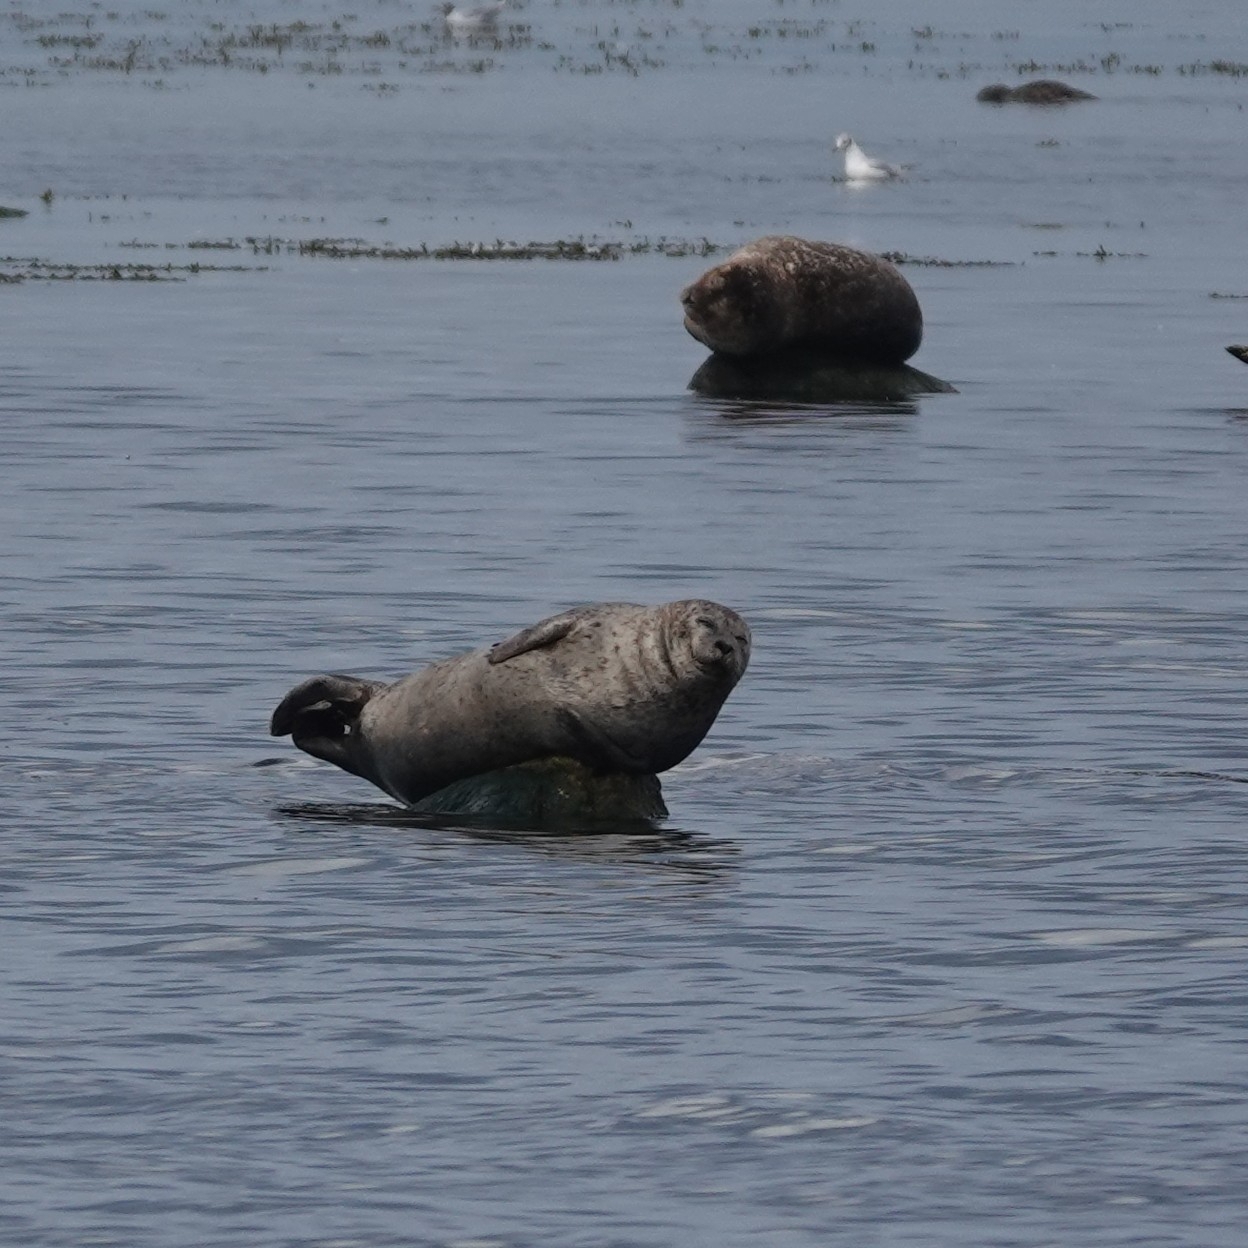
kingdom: Animalia
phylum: Chordata
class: Mammalia
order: Carnivora
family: Phocidae
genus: Phoca
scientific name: Phoca vitulina
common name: Harbor seal
